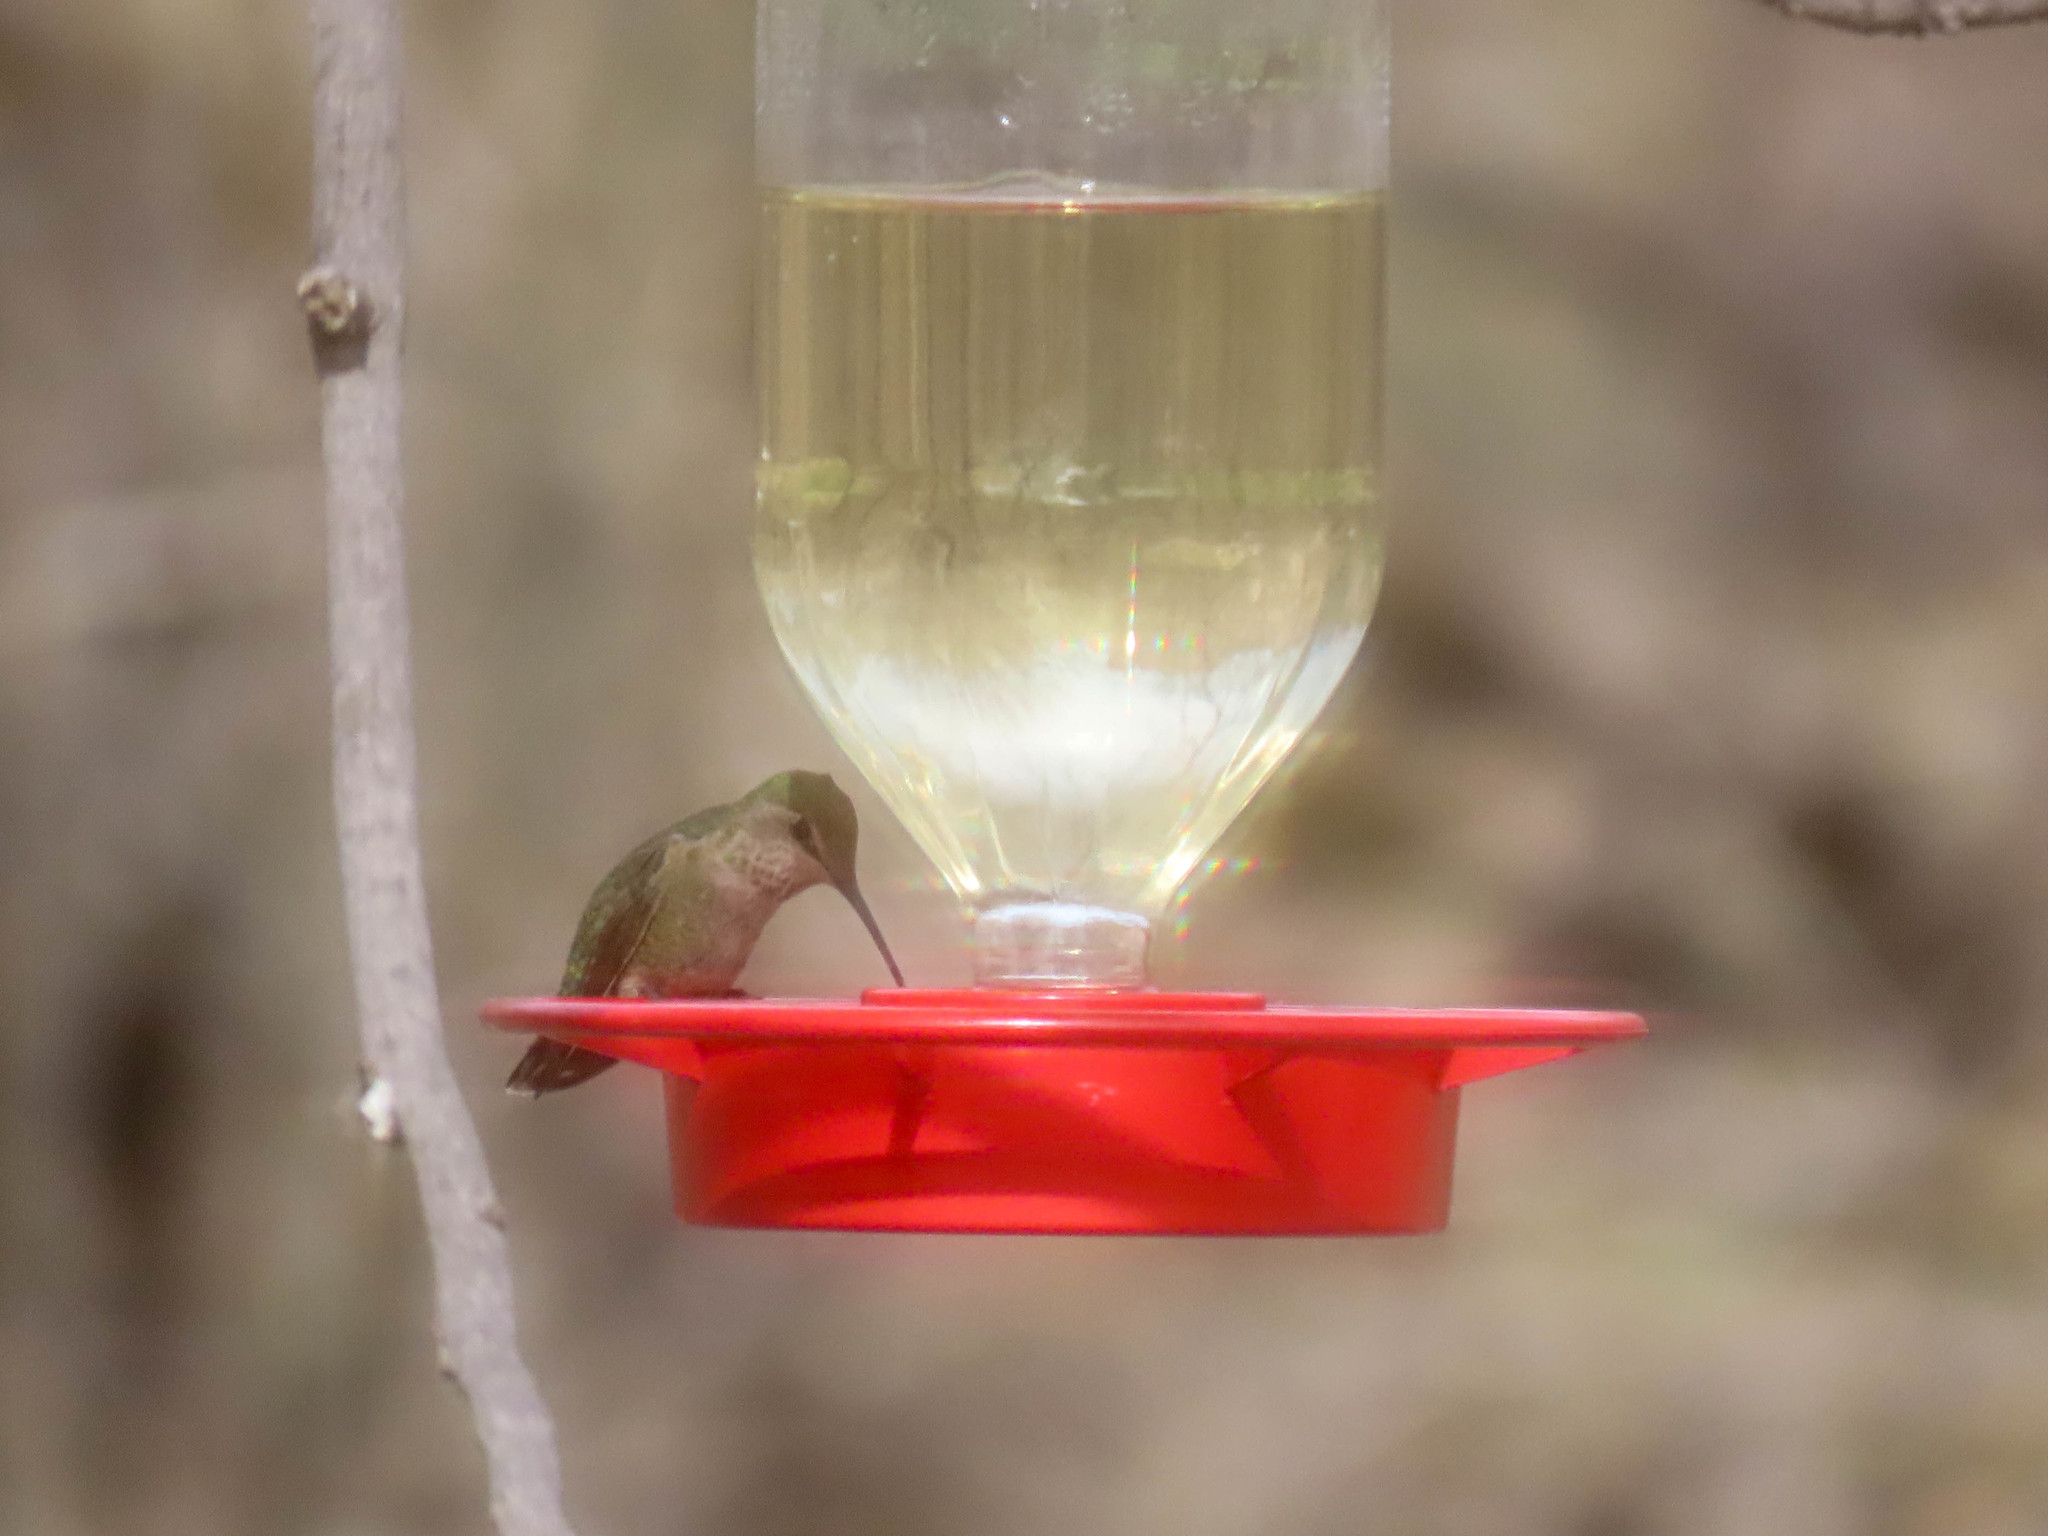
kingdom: Animalia
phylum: Chordata
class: Aves
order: Apodiformes
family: Trochilidae
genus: Calypte
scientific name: Calypte anna
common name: Anna's hummingbird
